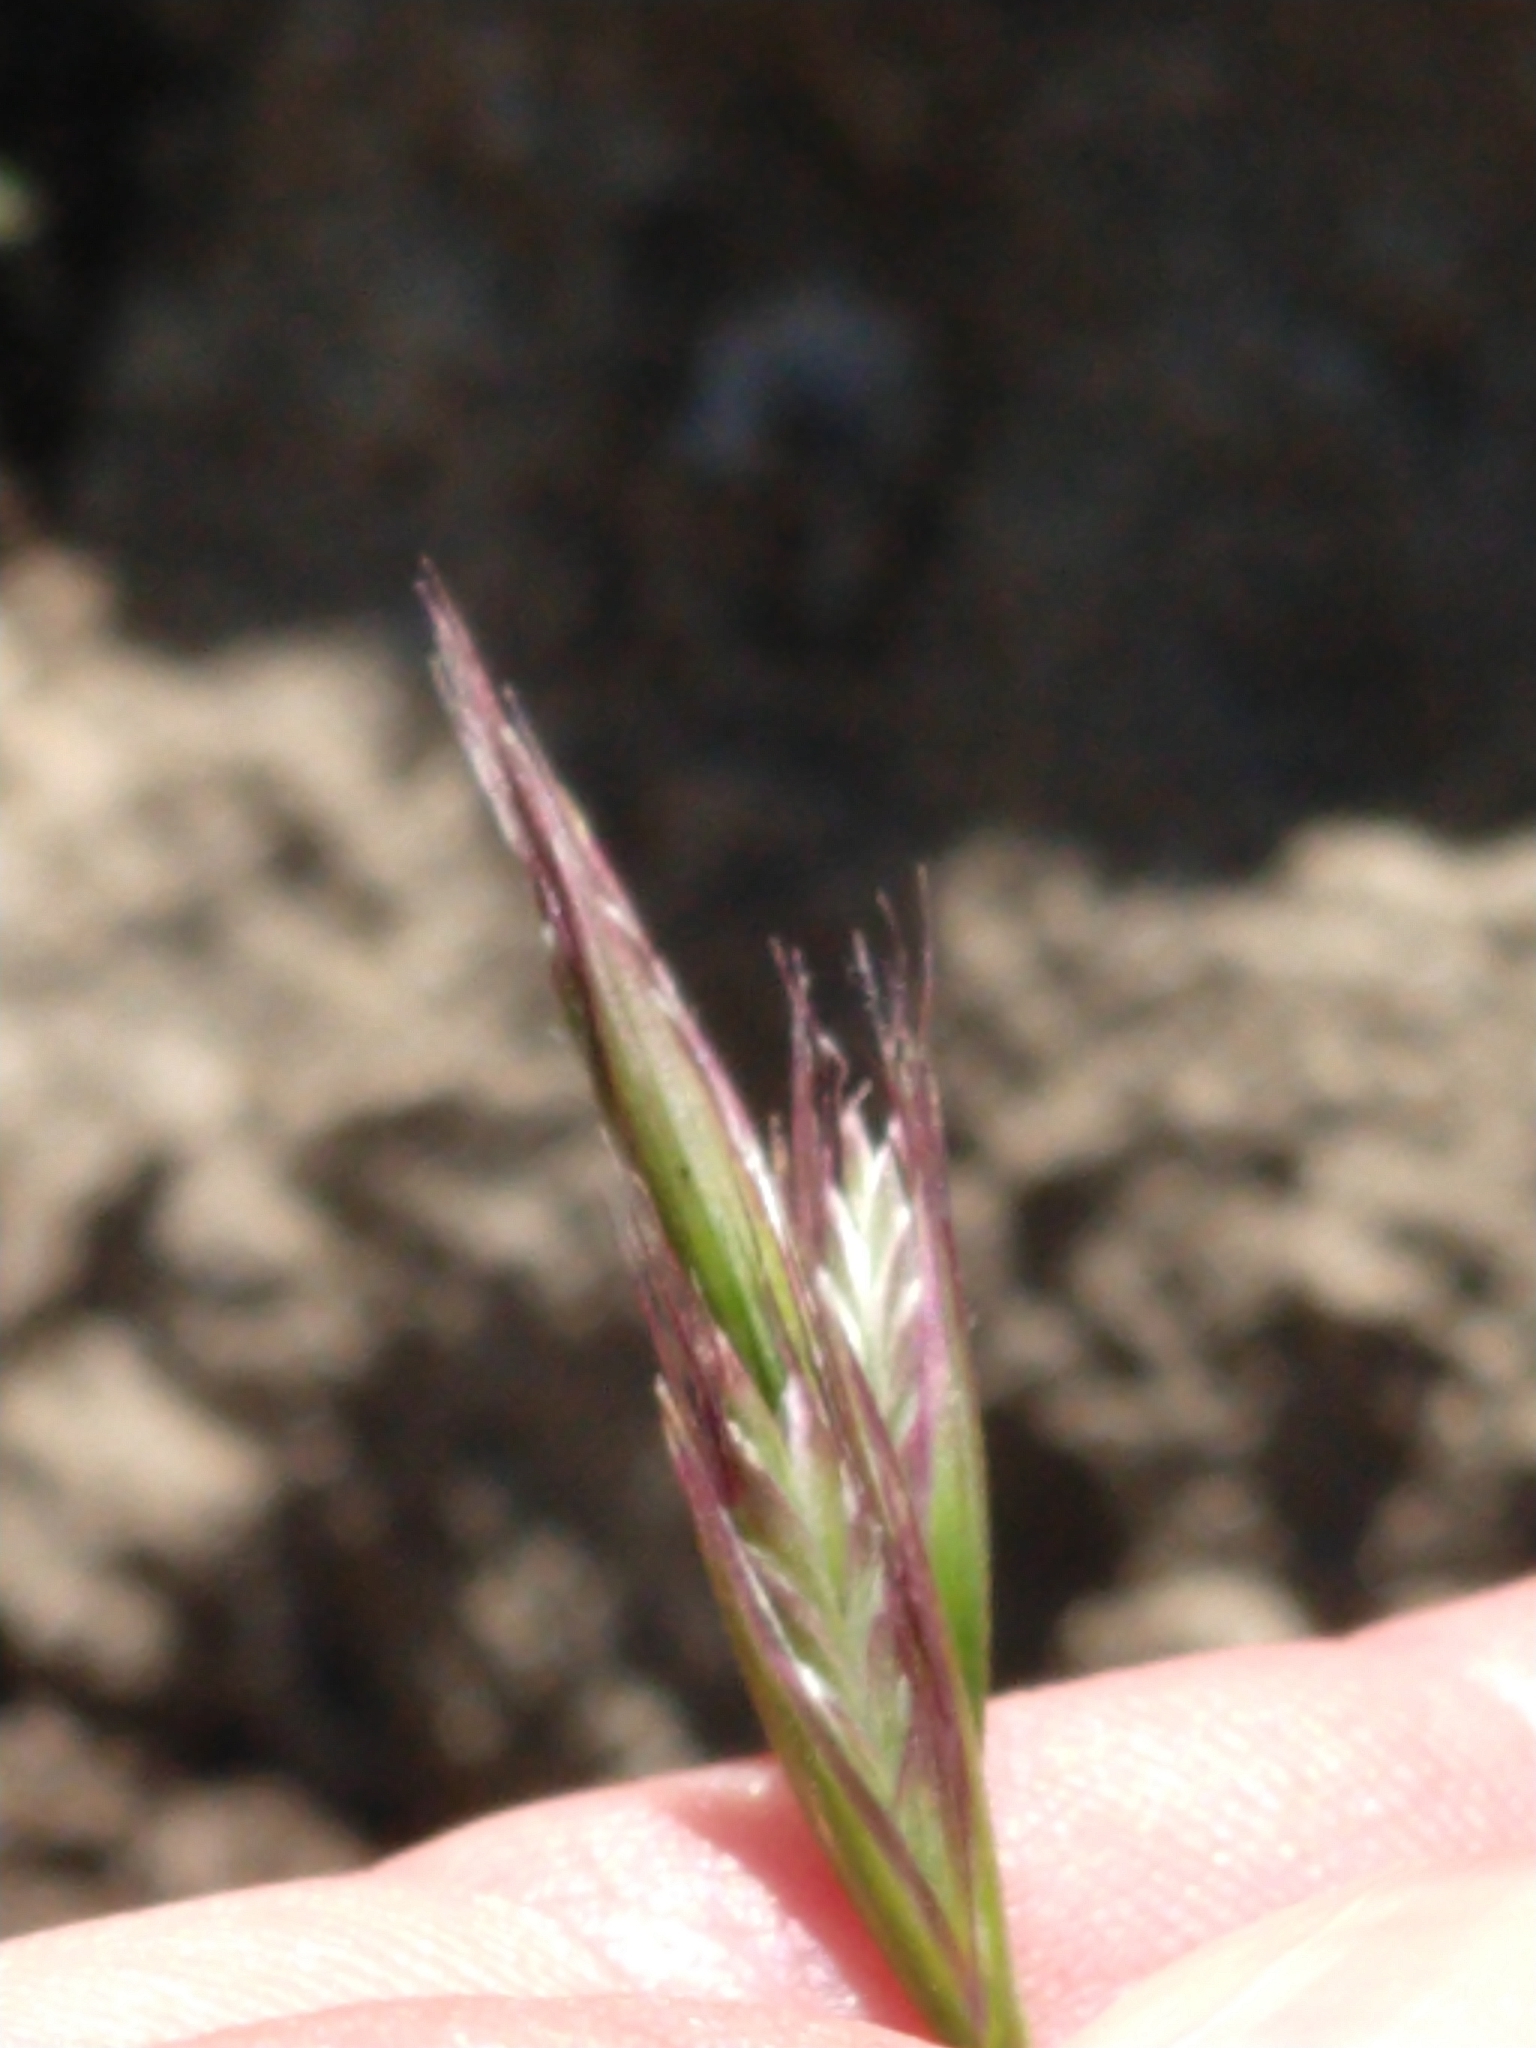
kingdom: Plantae
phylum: Tracheophyta
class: Liliopsida
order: Poales
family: Poaceae
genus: Danthonia
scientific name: Danthonia unispicata
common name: Few-flowered oatgrass
